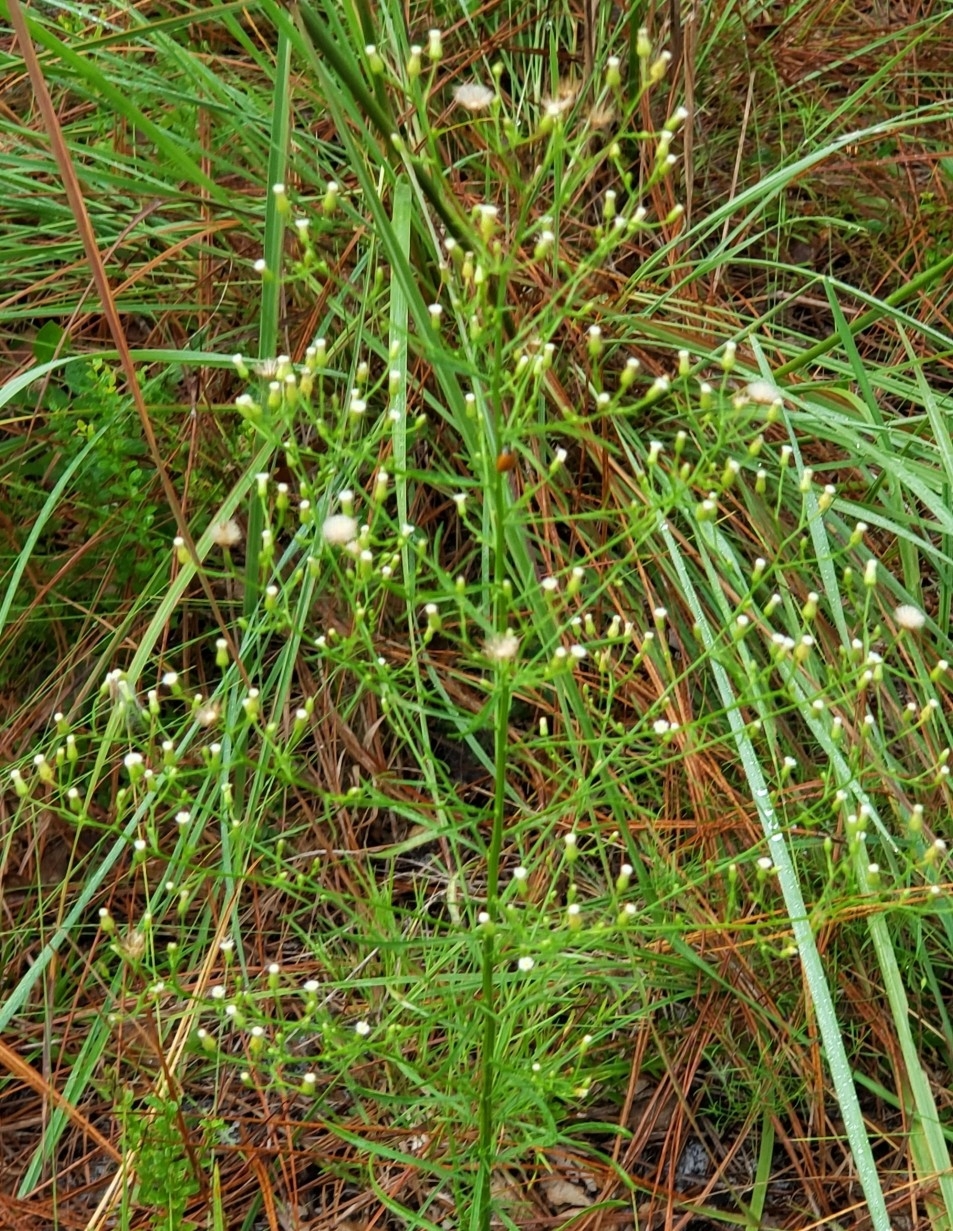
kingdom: Plantae
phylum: Tracheophyta
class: Magnoliopsida
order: Asterales
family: Asteraceae
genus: Erigeron
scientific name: Erigeron canadensis
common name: Canadian fleabane
